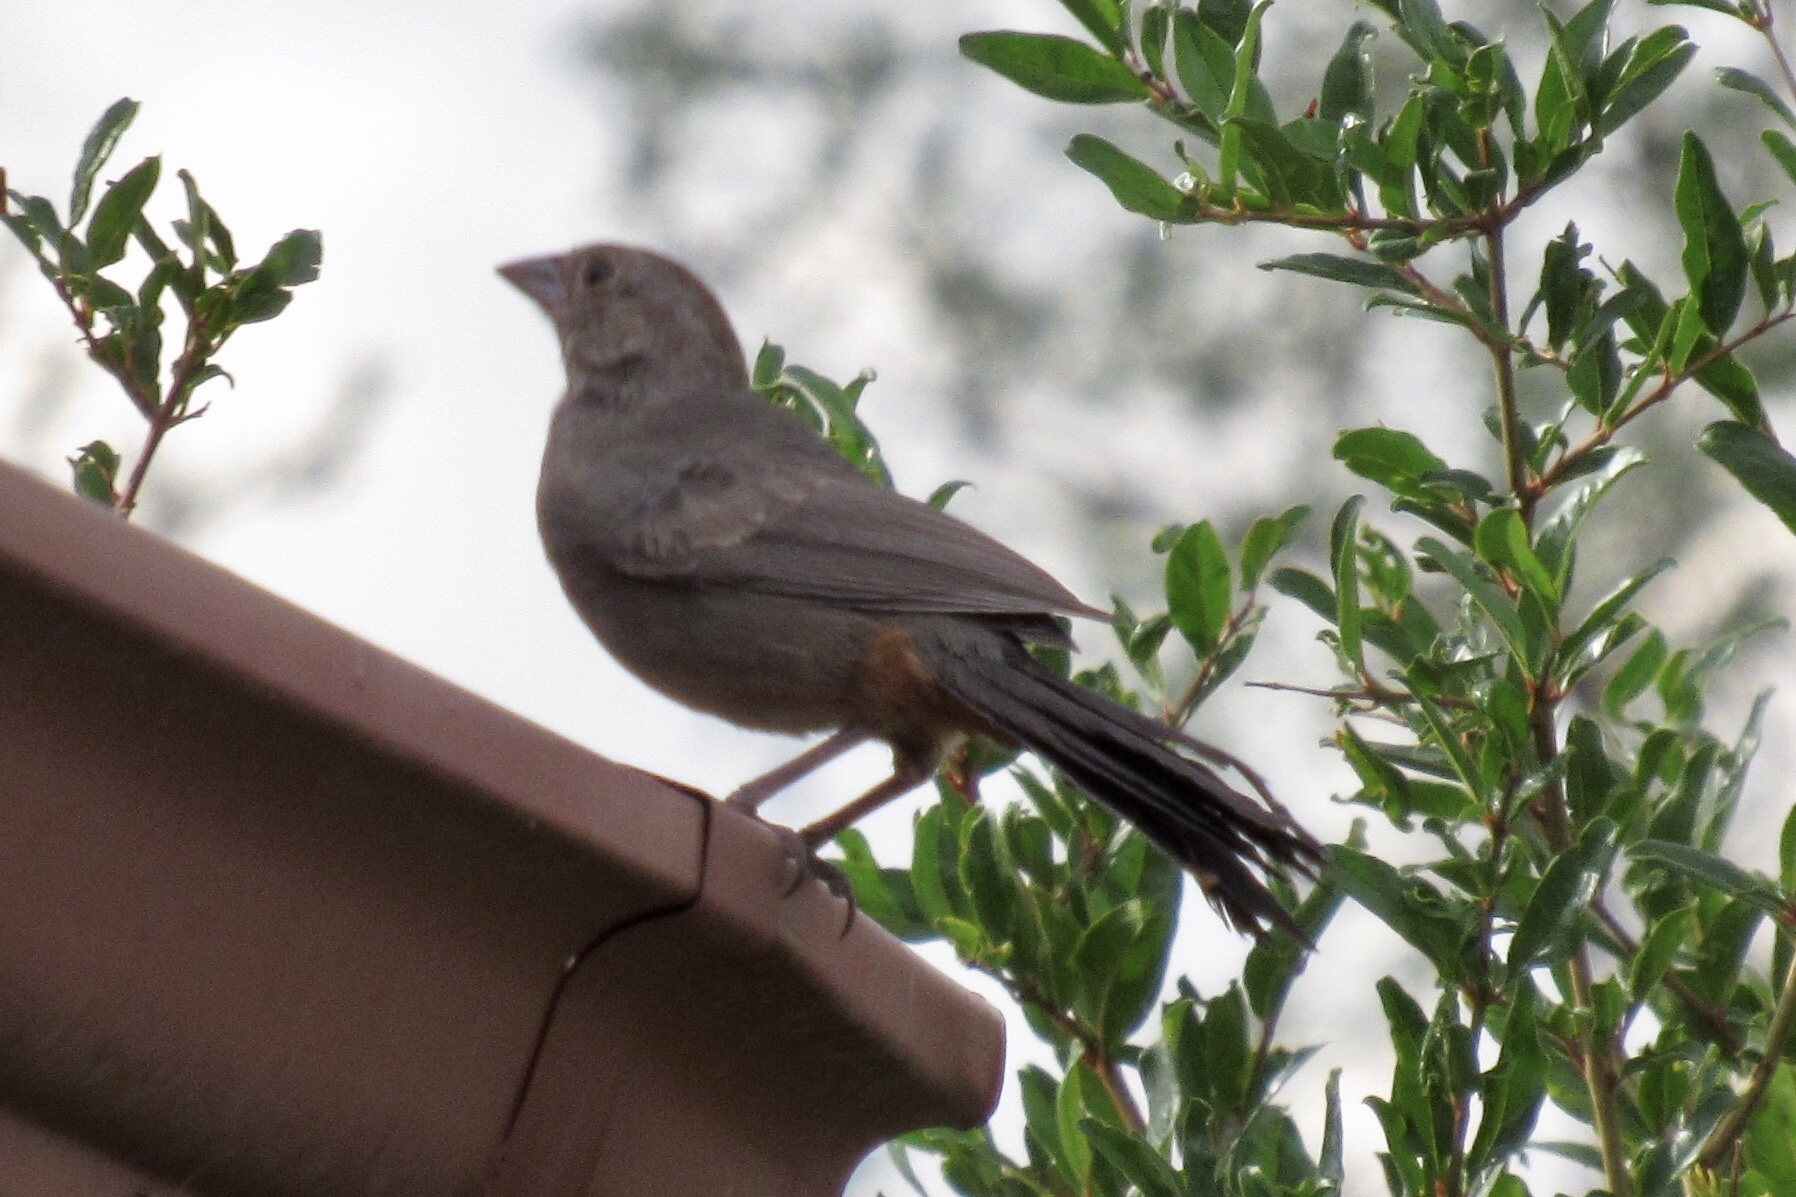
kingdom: Animalia
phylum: Chordata
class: Aves
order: Passeriformes
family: Passerellidae
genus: Melozone
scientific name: Melozone fusca
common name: Canyon towhee
